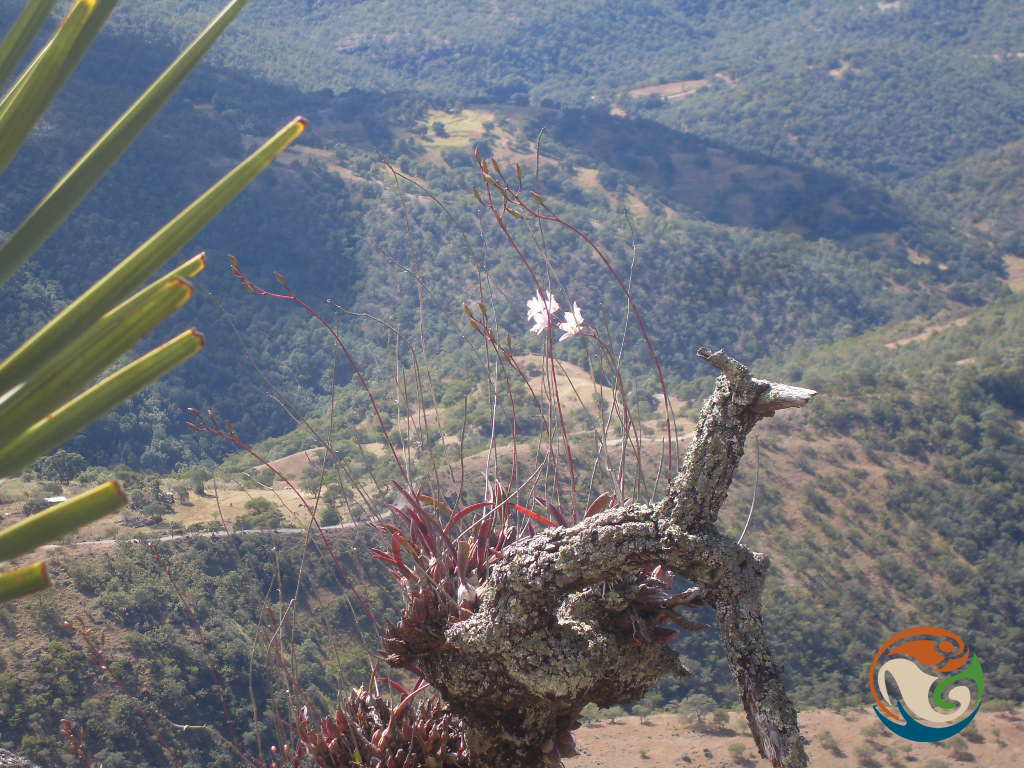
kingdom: Plantae
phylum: Tracheophyta
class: Liliopsida
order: Asparagales
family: Orchidaceae
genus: Laelia
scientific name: Laelia albida
